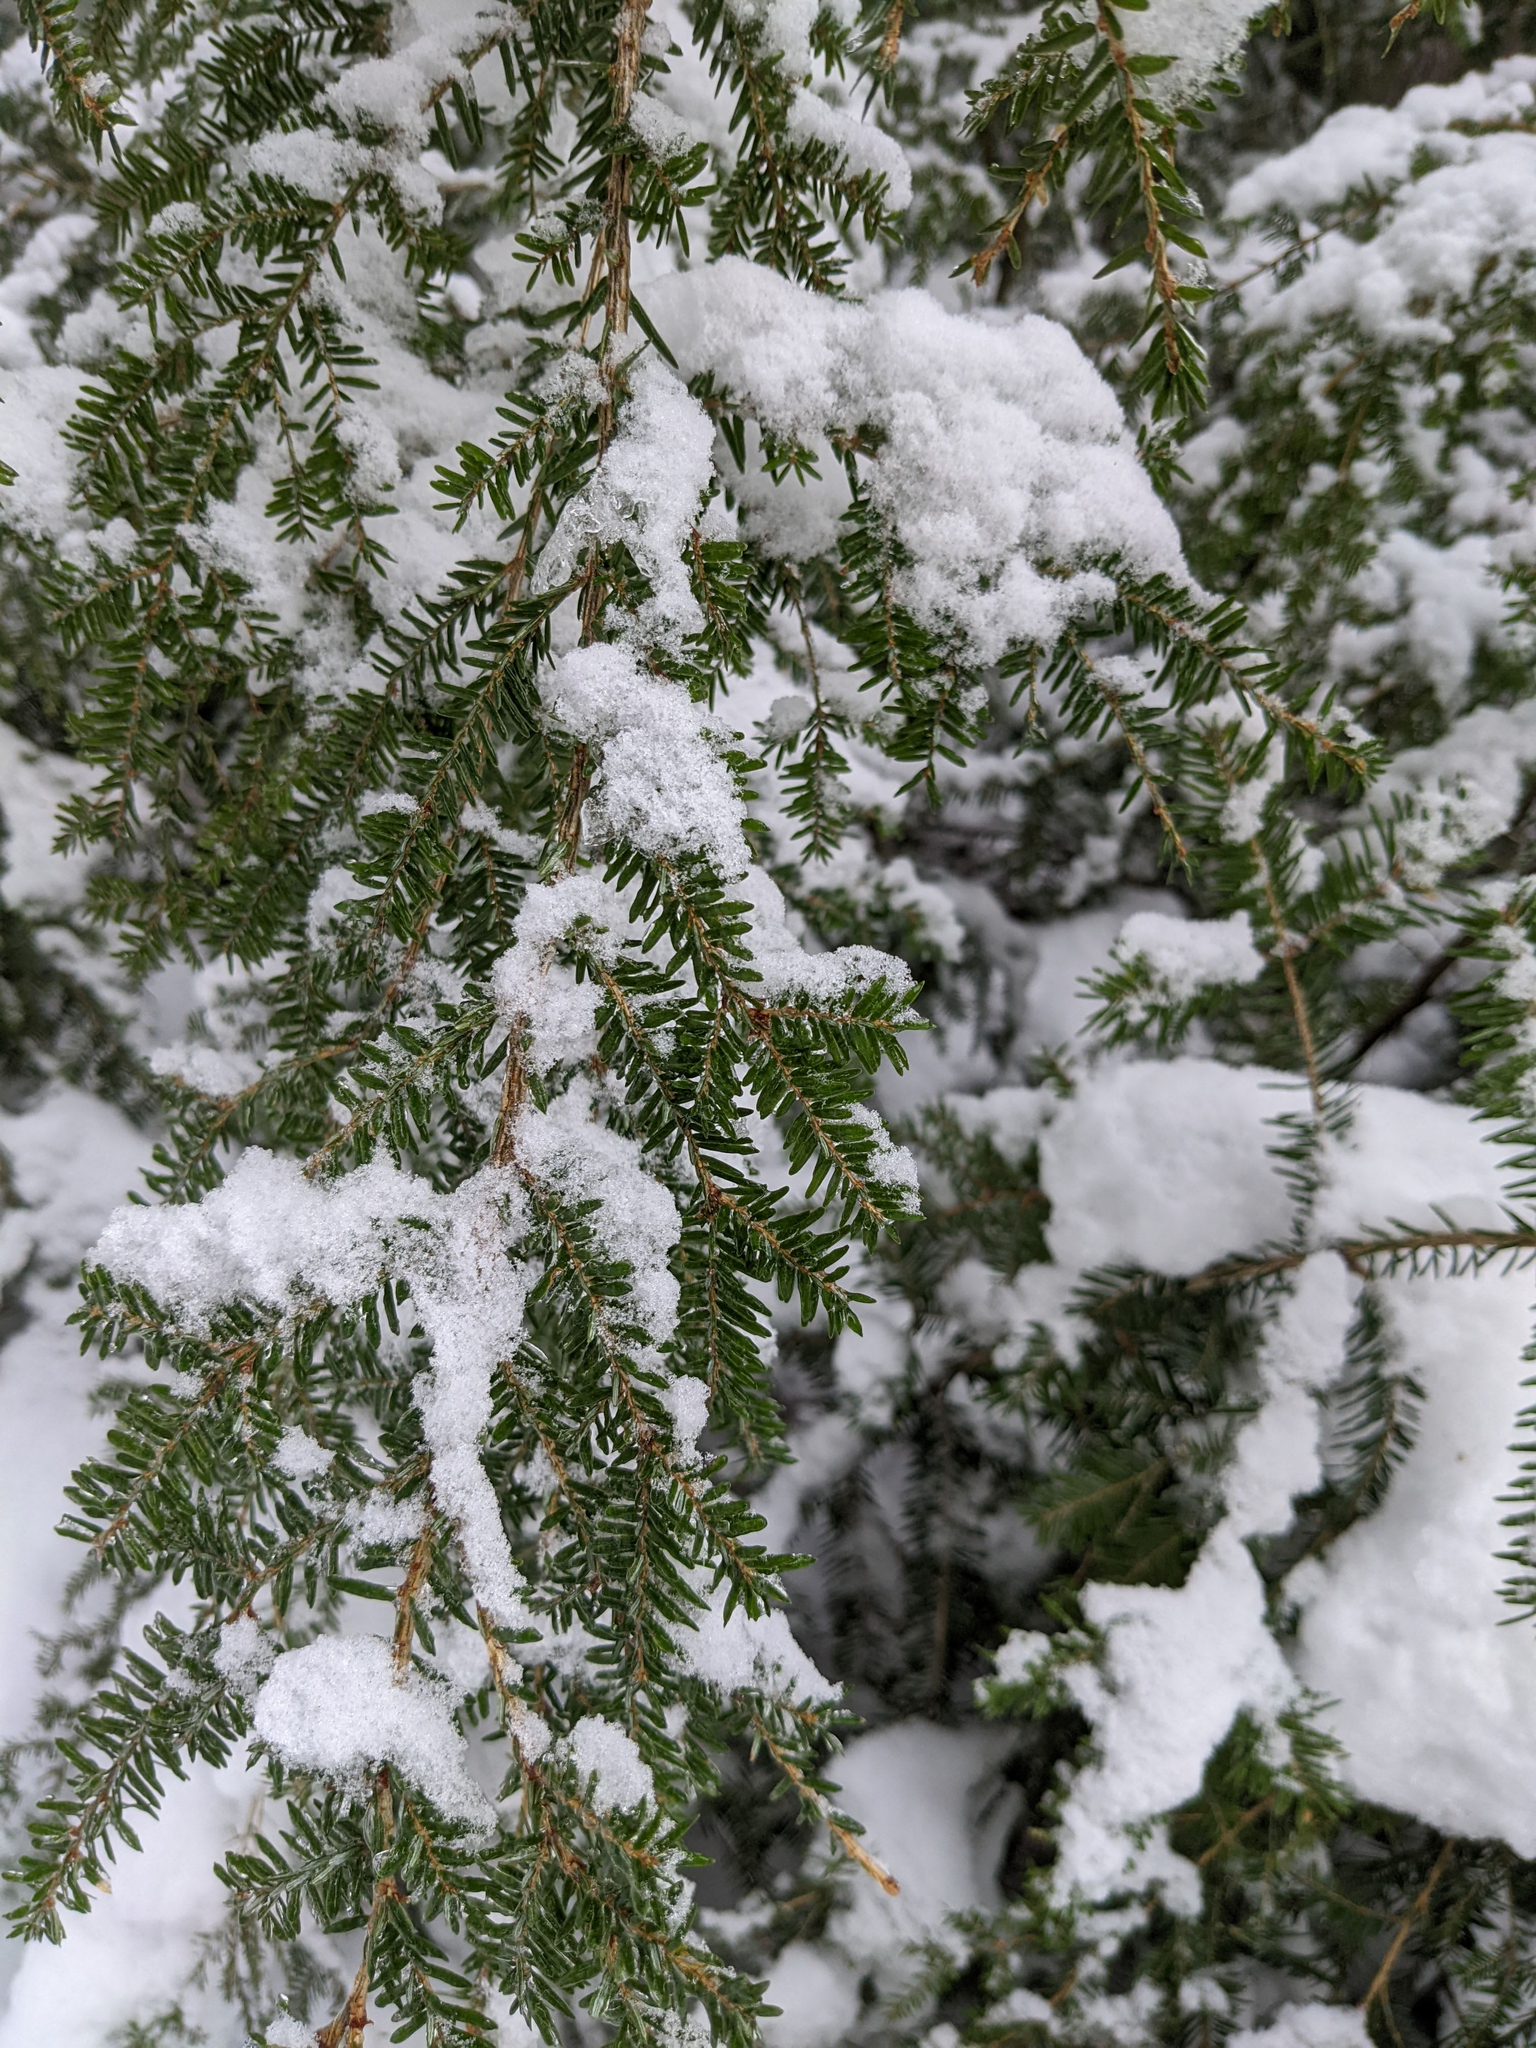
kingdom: Plantae
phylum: Tracheophyta
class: Pinopsida
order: Pinales
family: Pinaceae
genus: Tsuga
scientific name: Tsuga canadensis
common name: Eastern hemlock
